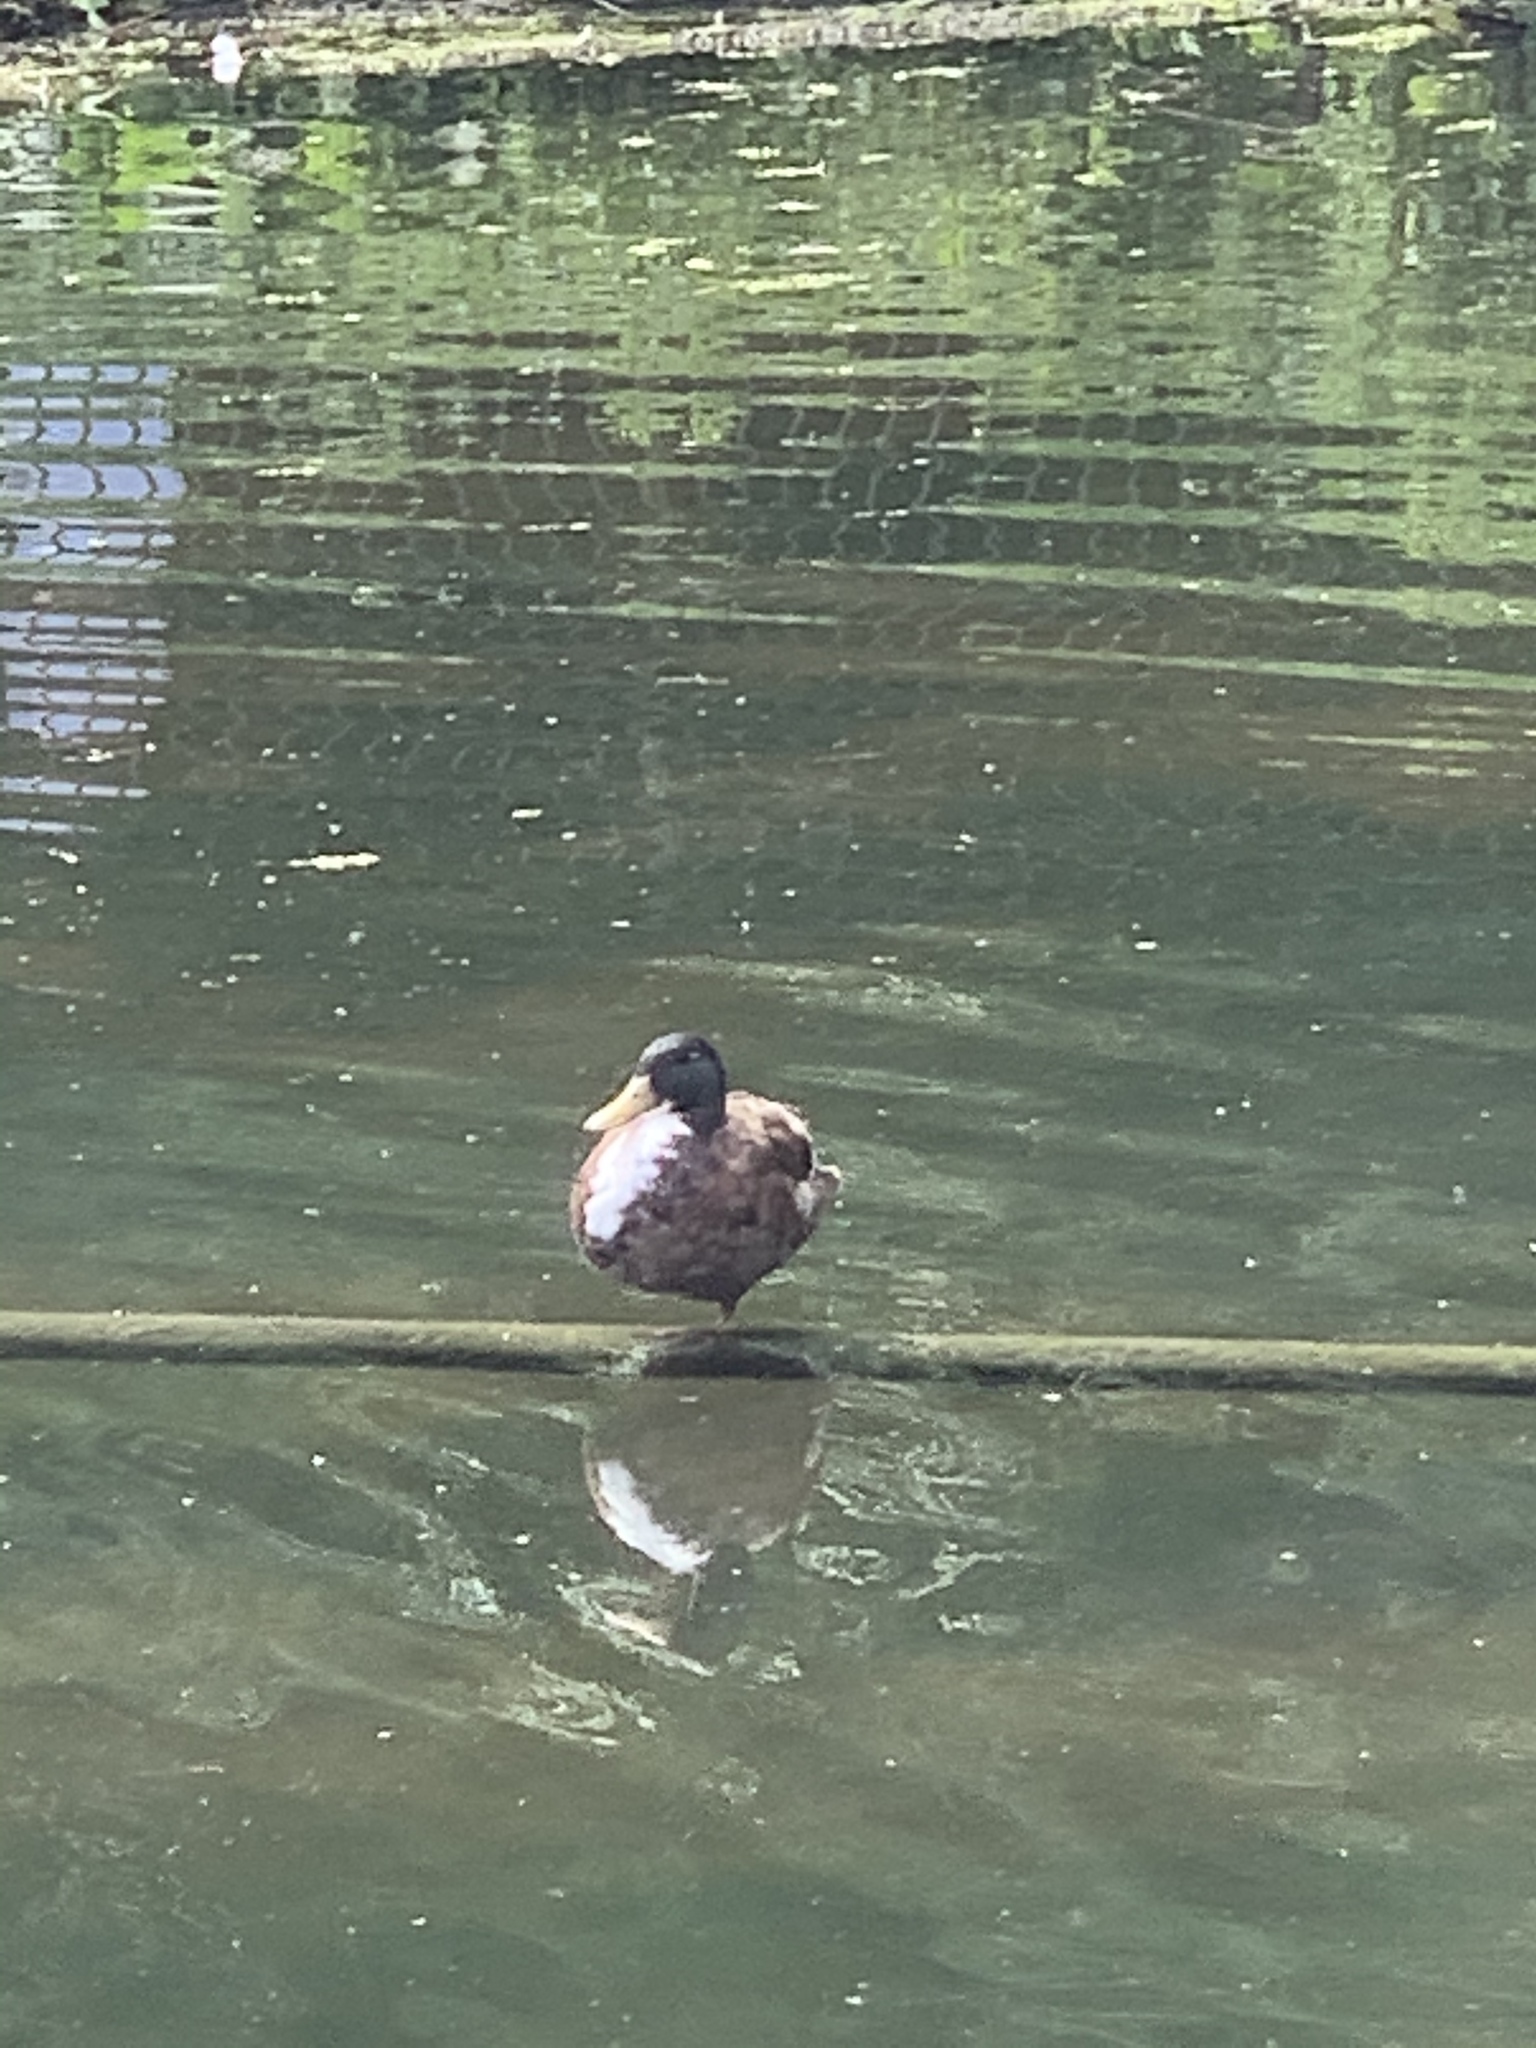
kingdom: Animalia
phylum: Chordata
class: Aves
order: Anseriformes
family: Anatidae
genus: Anas
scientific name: Anas platyrhynchos
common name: Mallard
